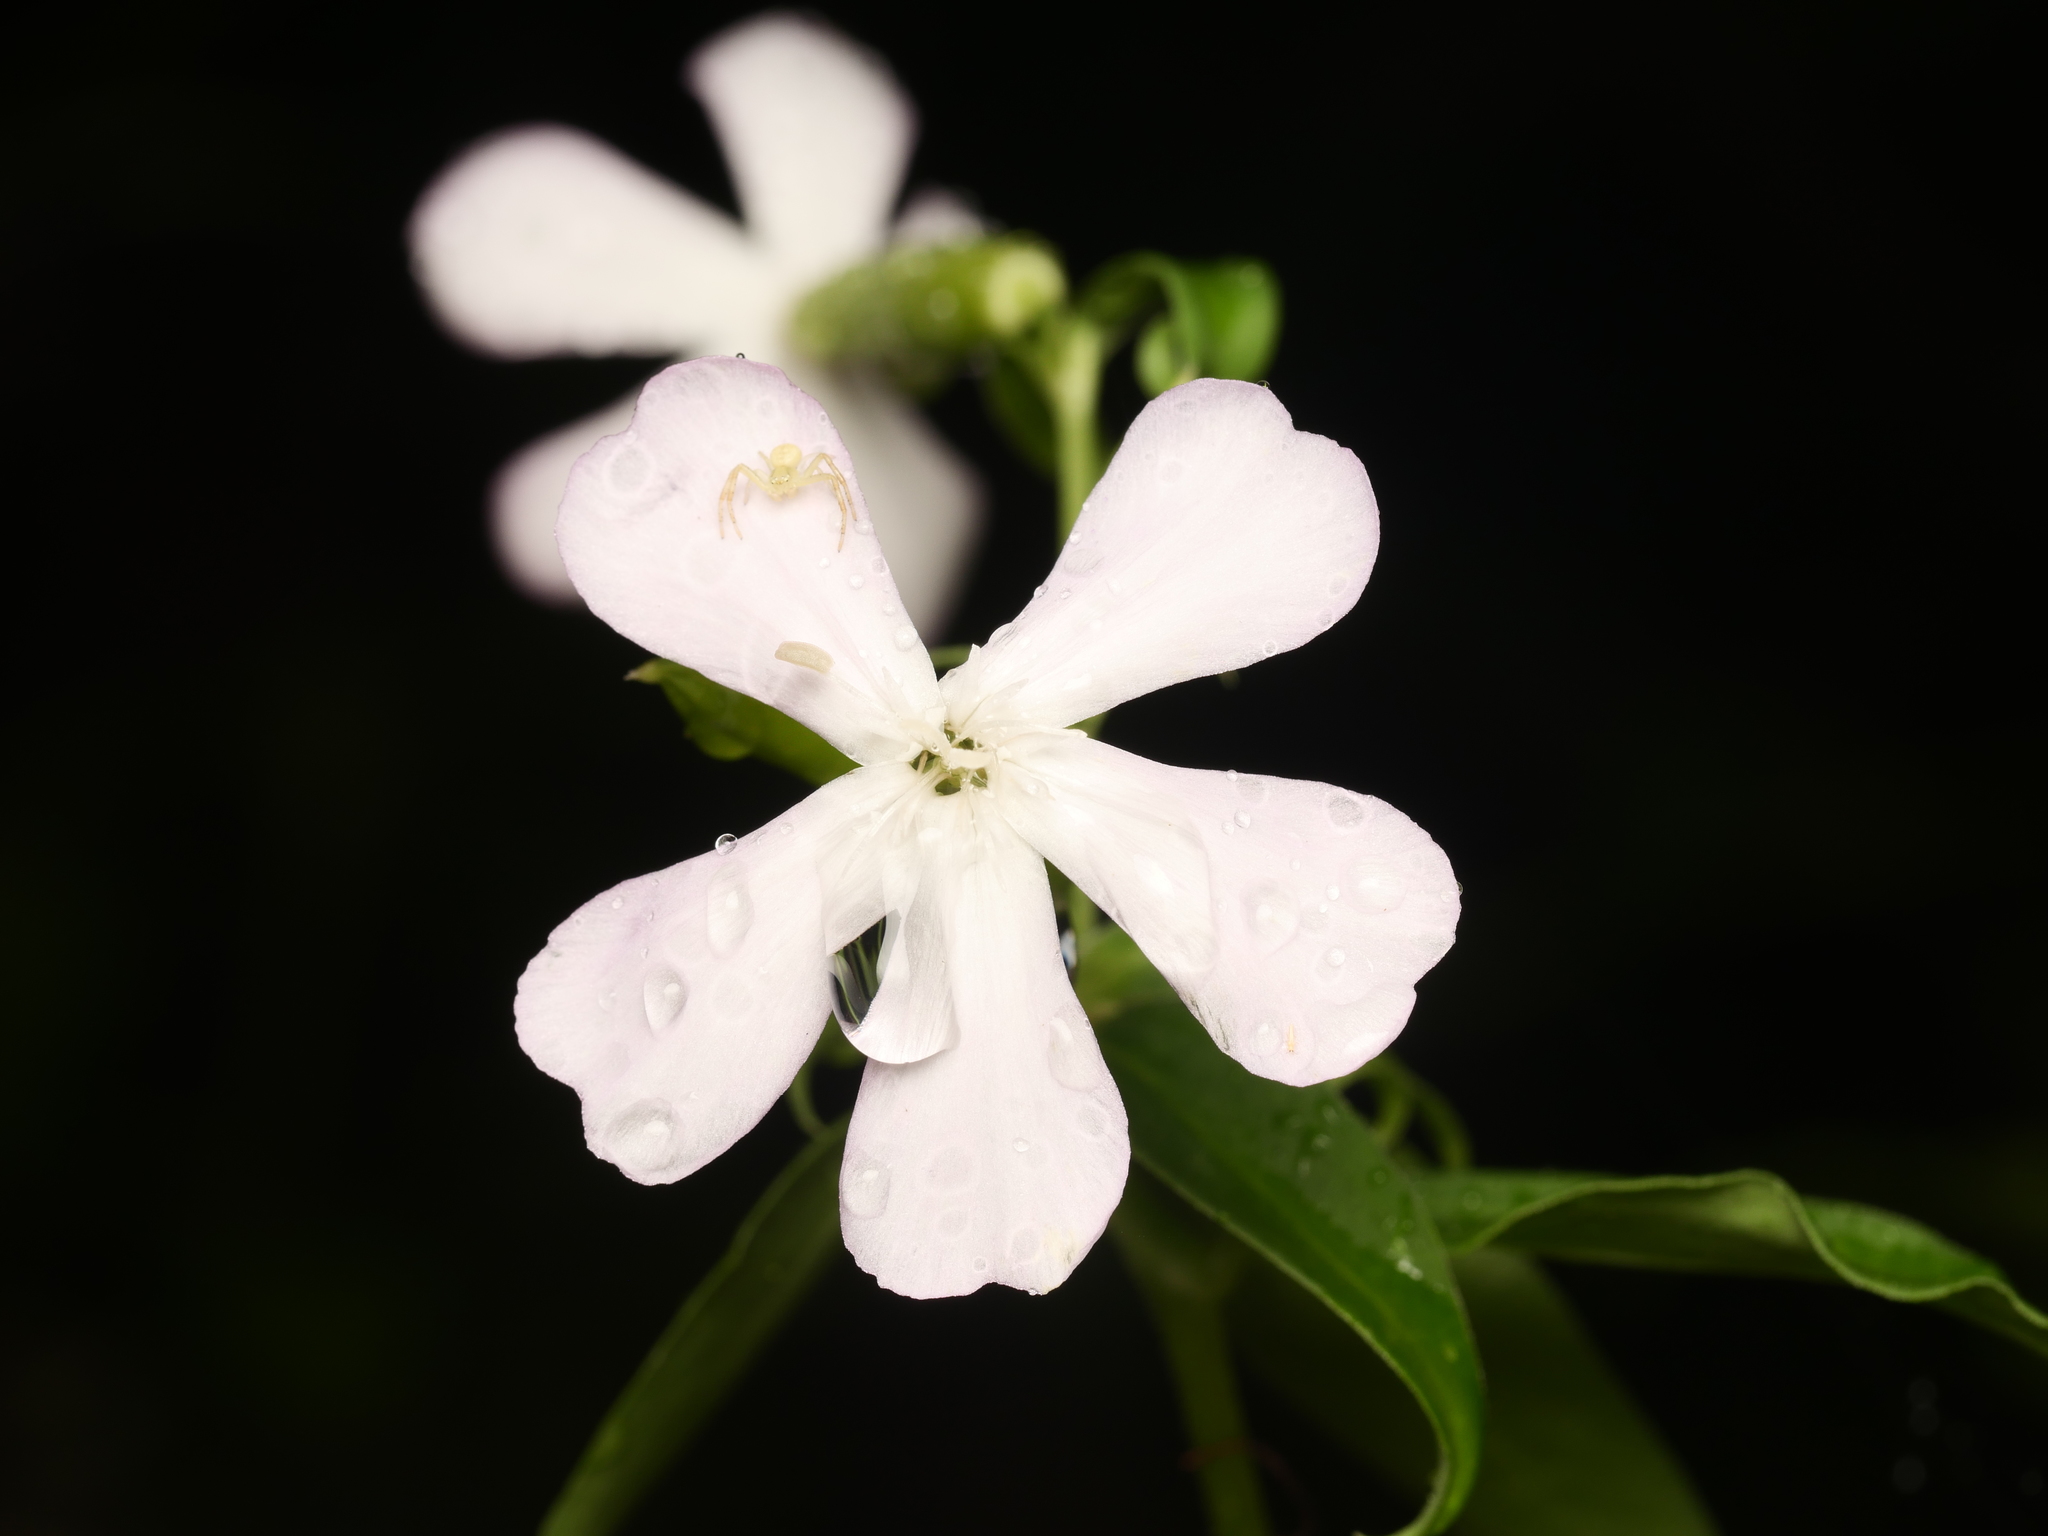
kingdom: Plantae
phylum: Tracheophyta
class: Magnoliopsida
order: Caryophyllales
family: Caryophyllaceae
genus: Saponaria
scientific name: Saponaria officinalis
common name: Soapwort
